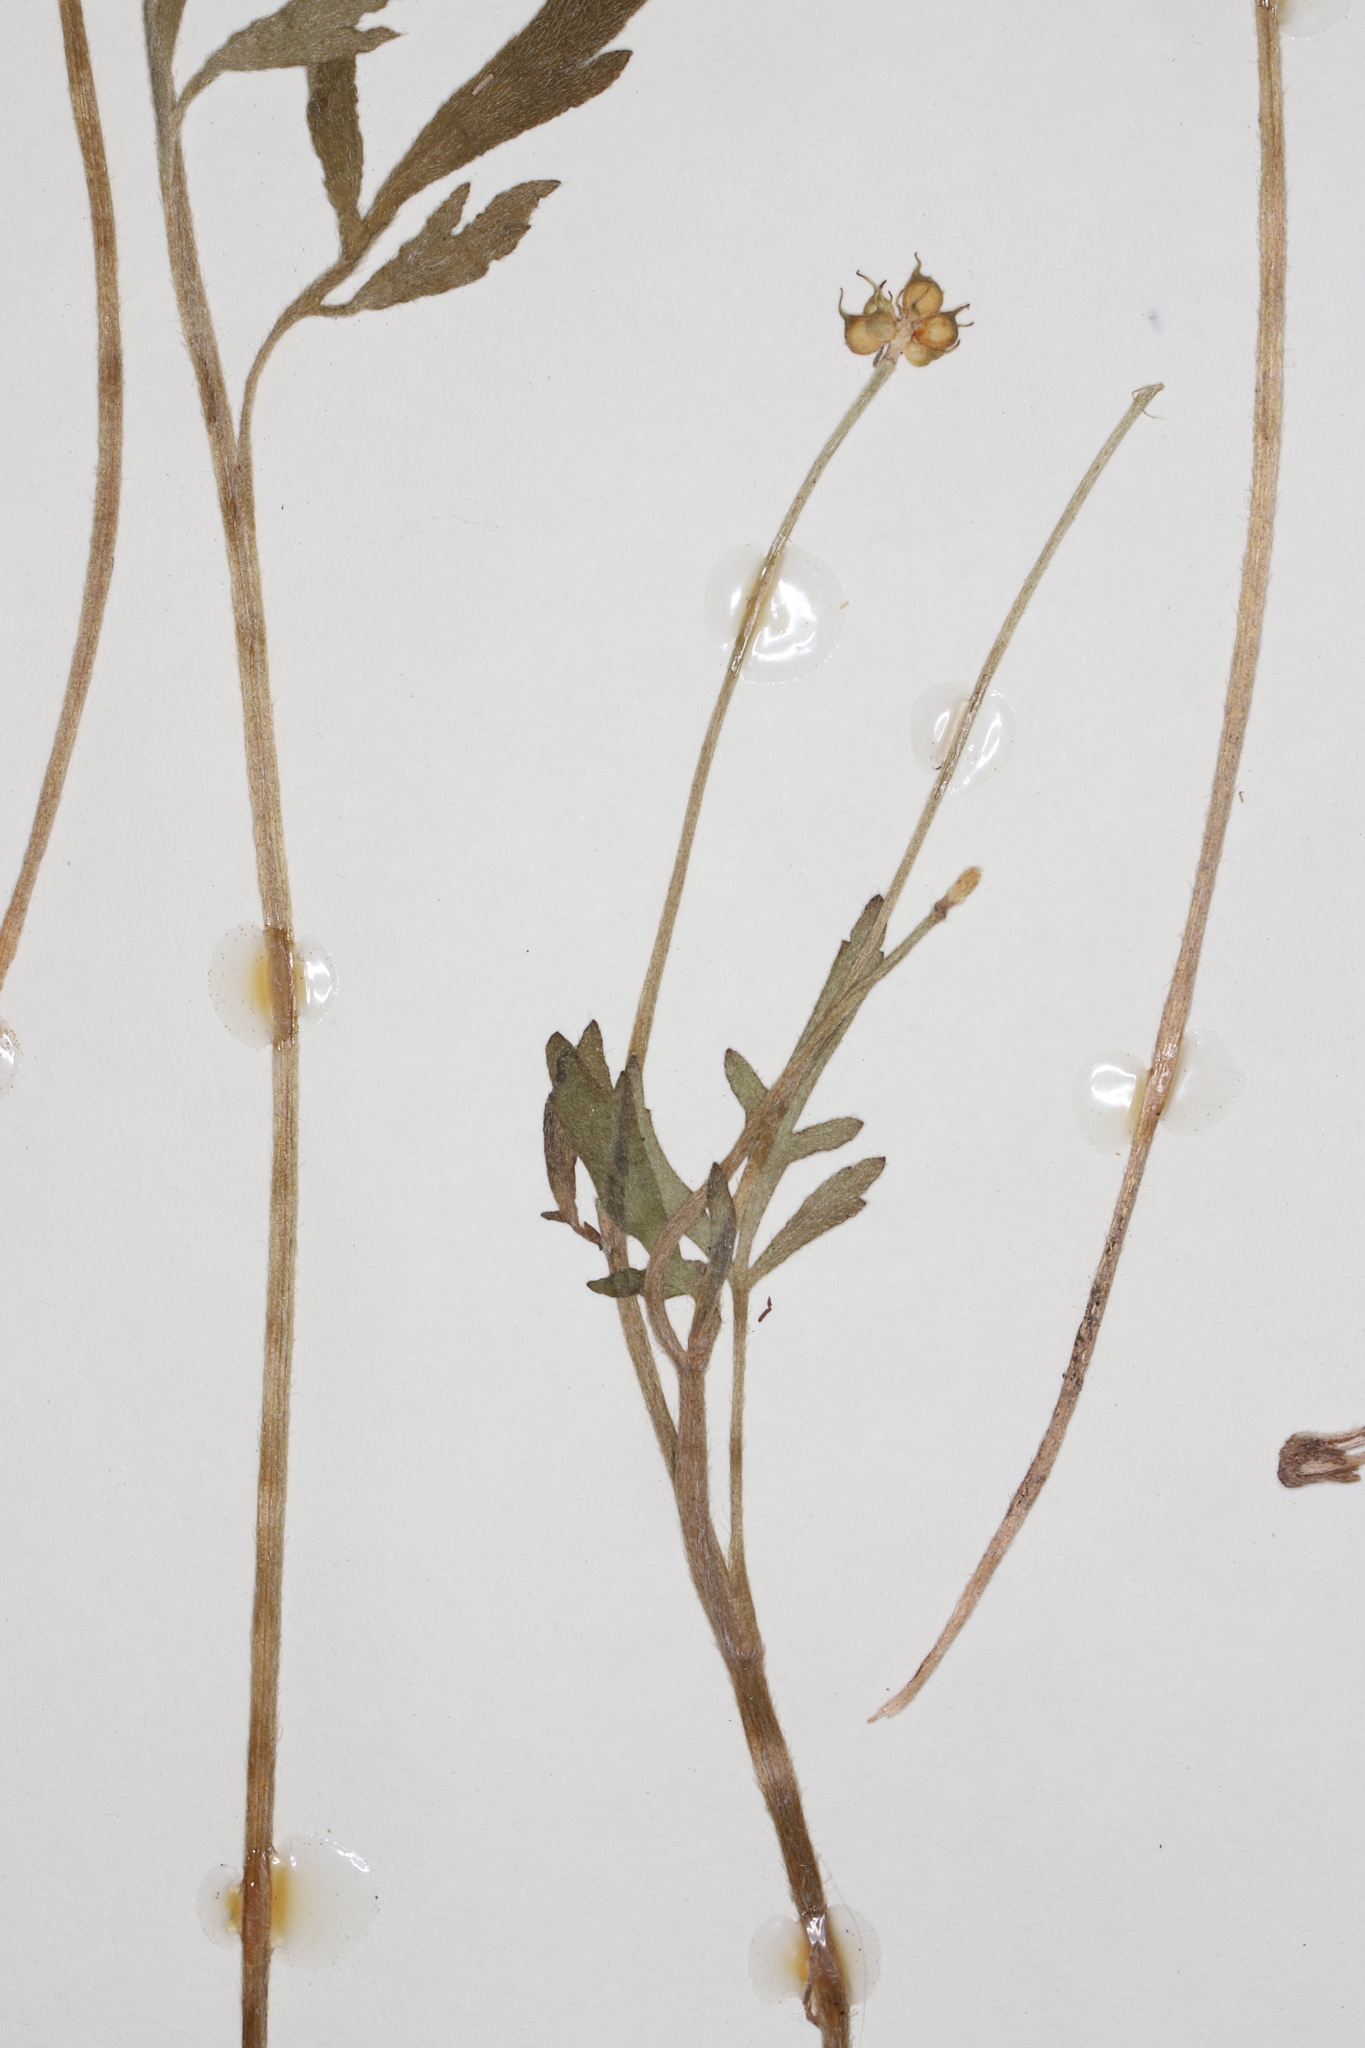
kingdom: Plantae
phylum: Tracheophyta
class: Magnoliopsida
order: Ranunculales
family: Ranunculaceae
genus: Ranunculus
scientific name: Ranunculus fascicularis
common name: Early buttercup
